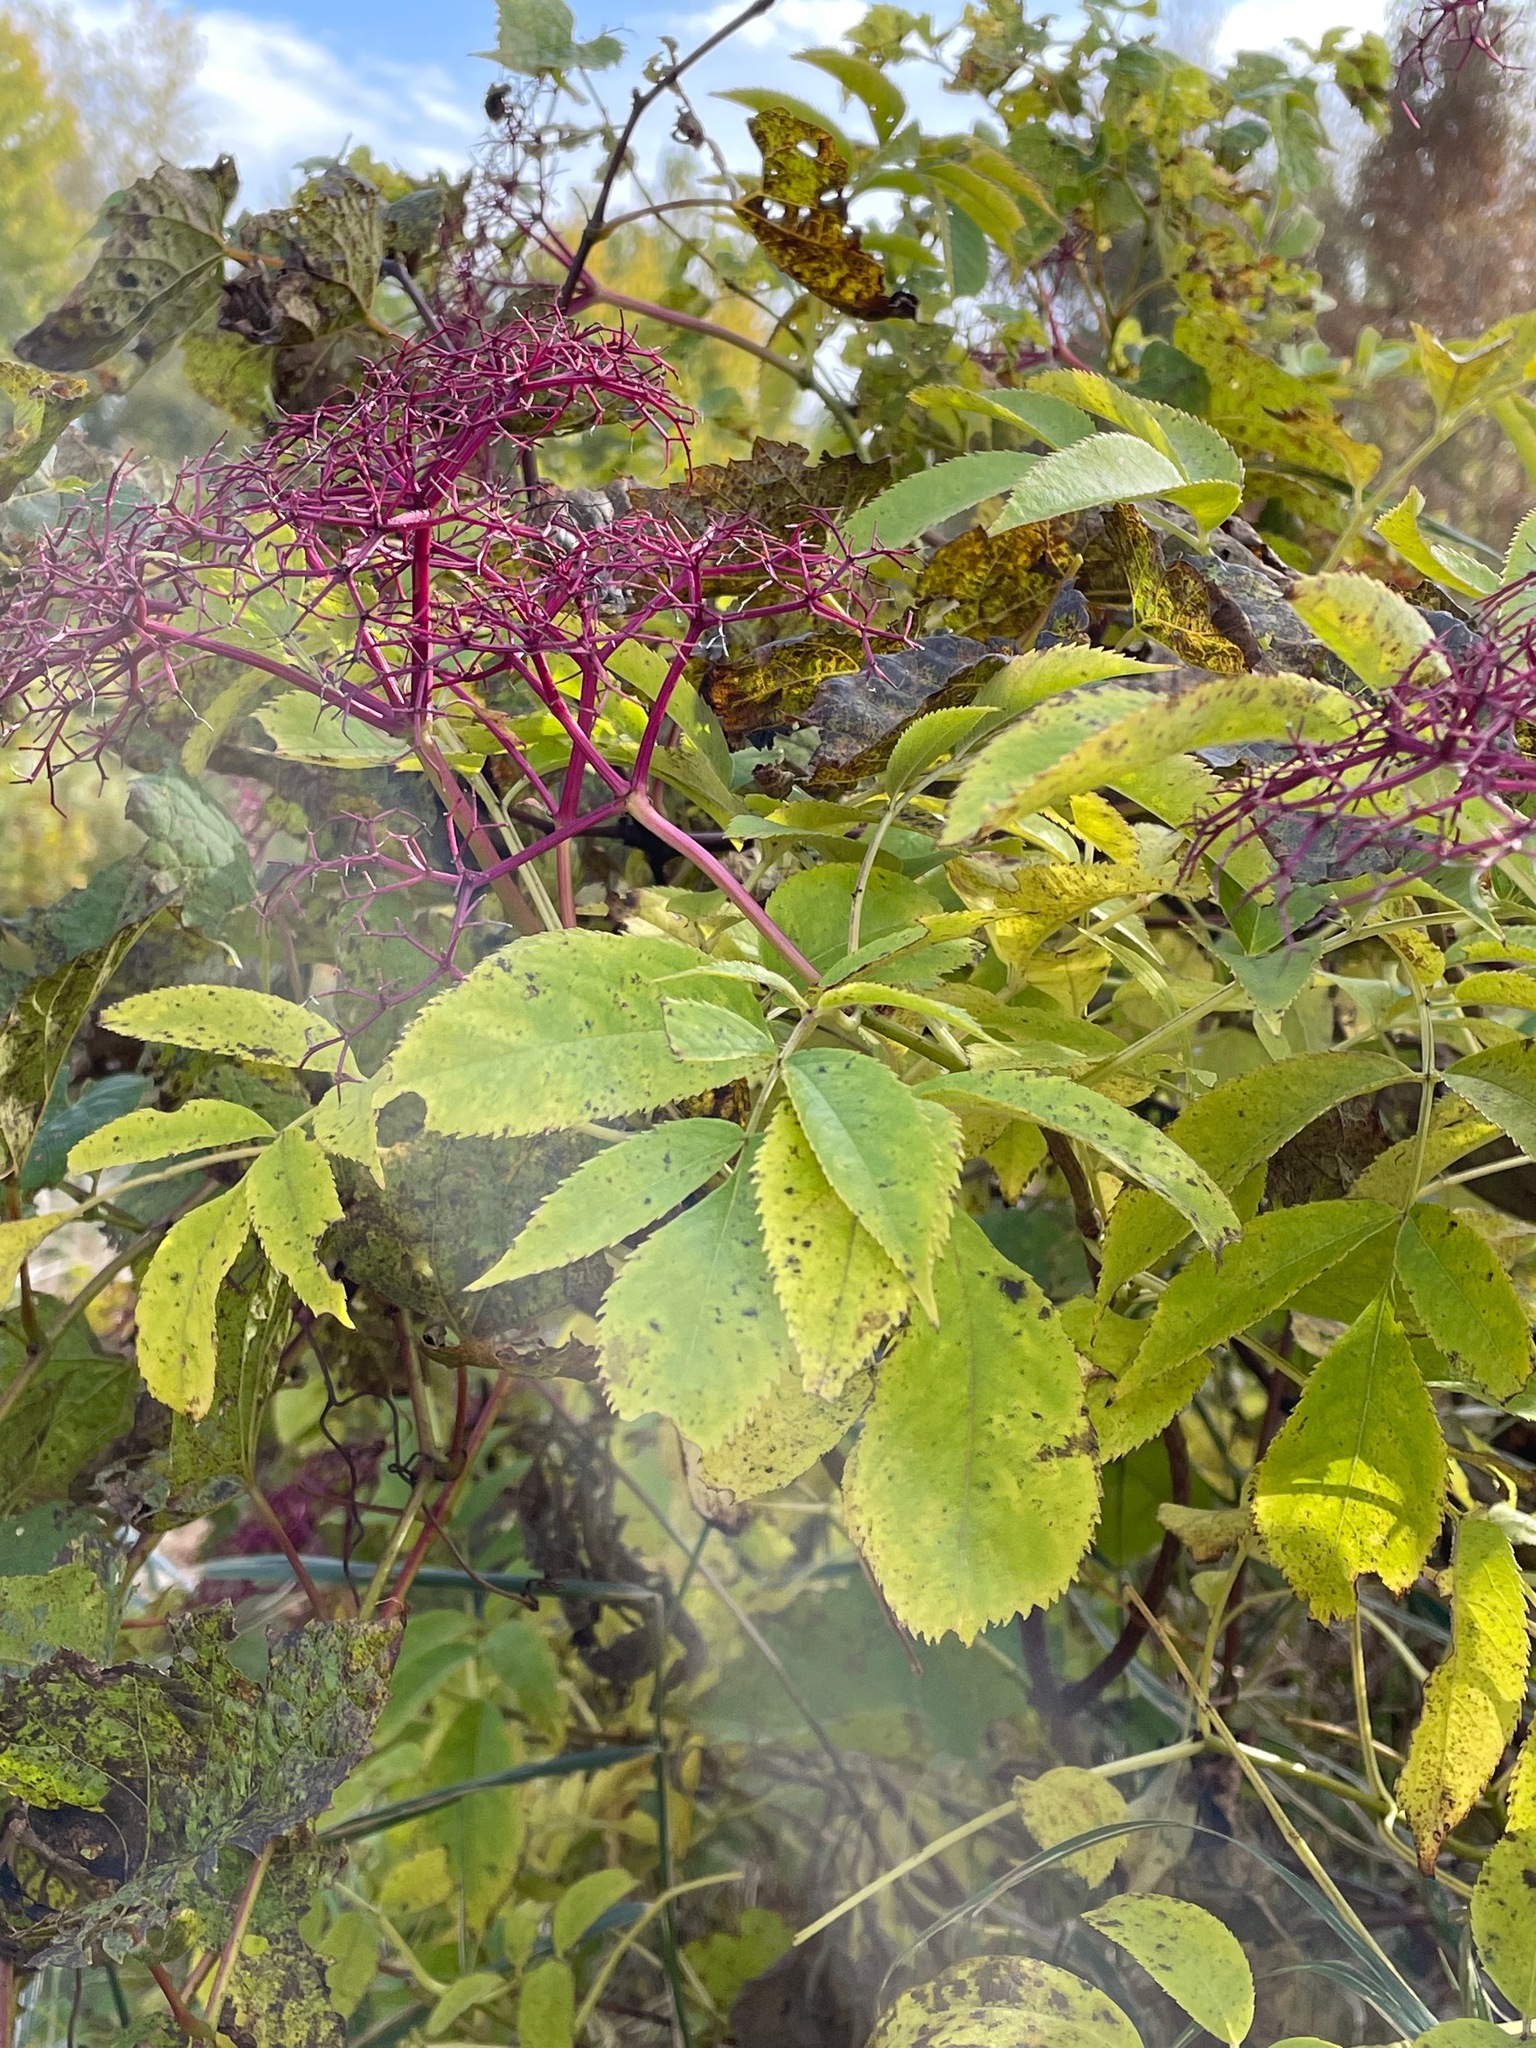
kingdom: Plantae
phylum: Tracheophyta
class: Magnoliopsida
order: Dipsacales
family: Viburnaceae
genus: Sambucus
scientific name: Sambucus canadensis
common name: American elder
